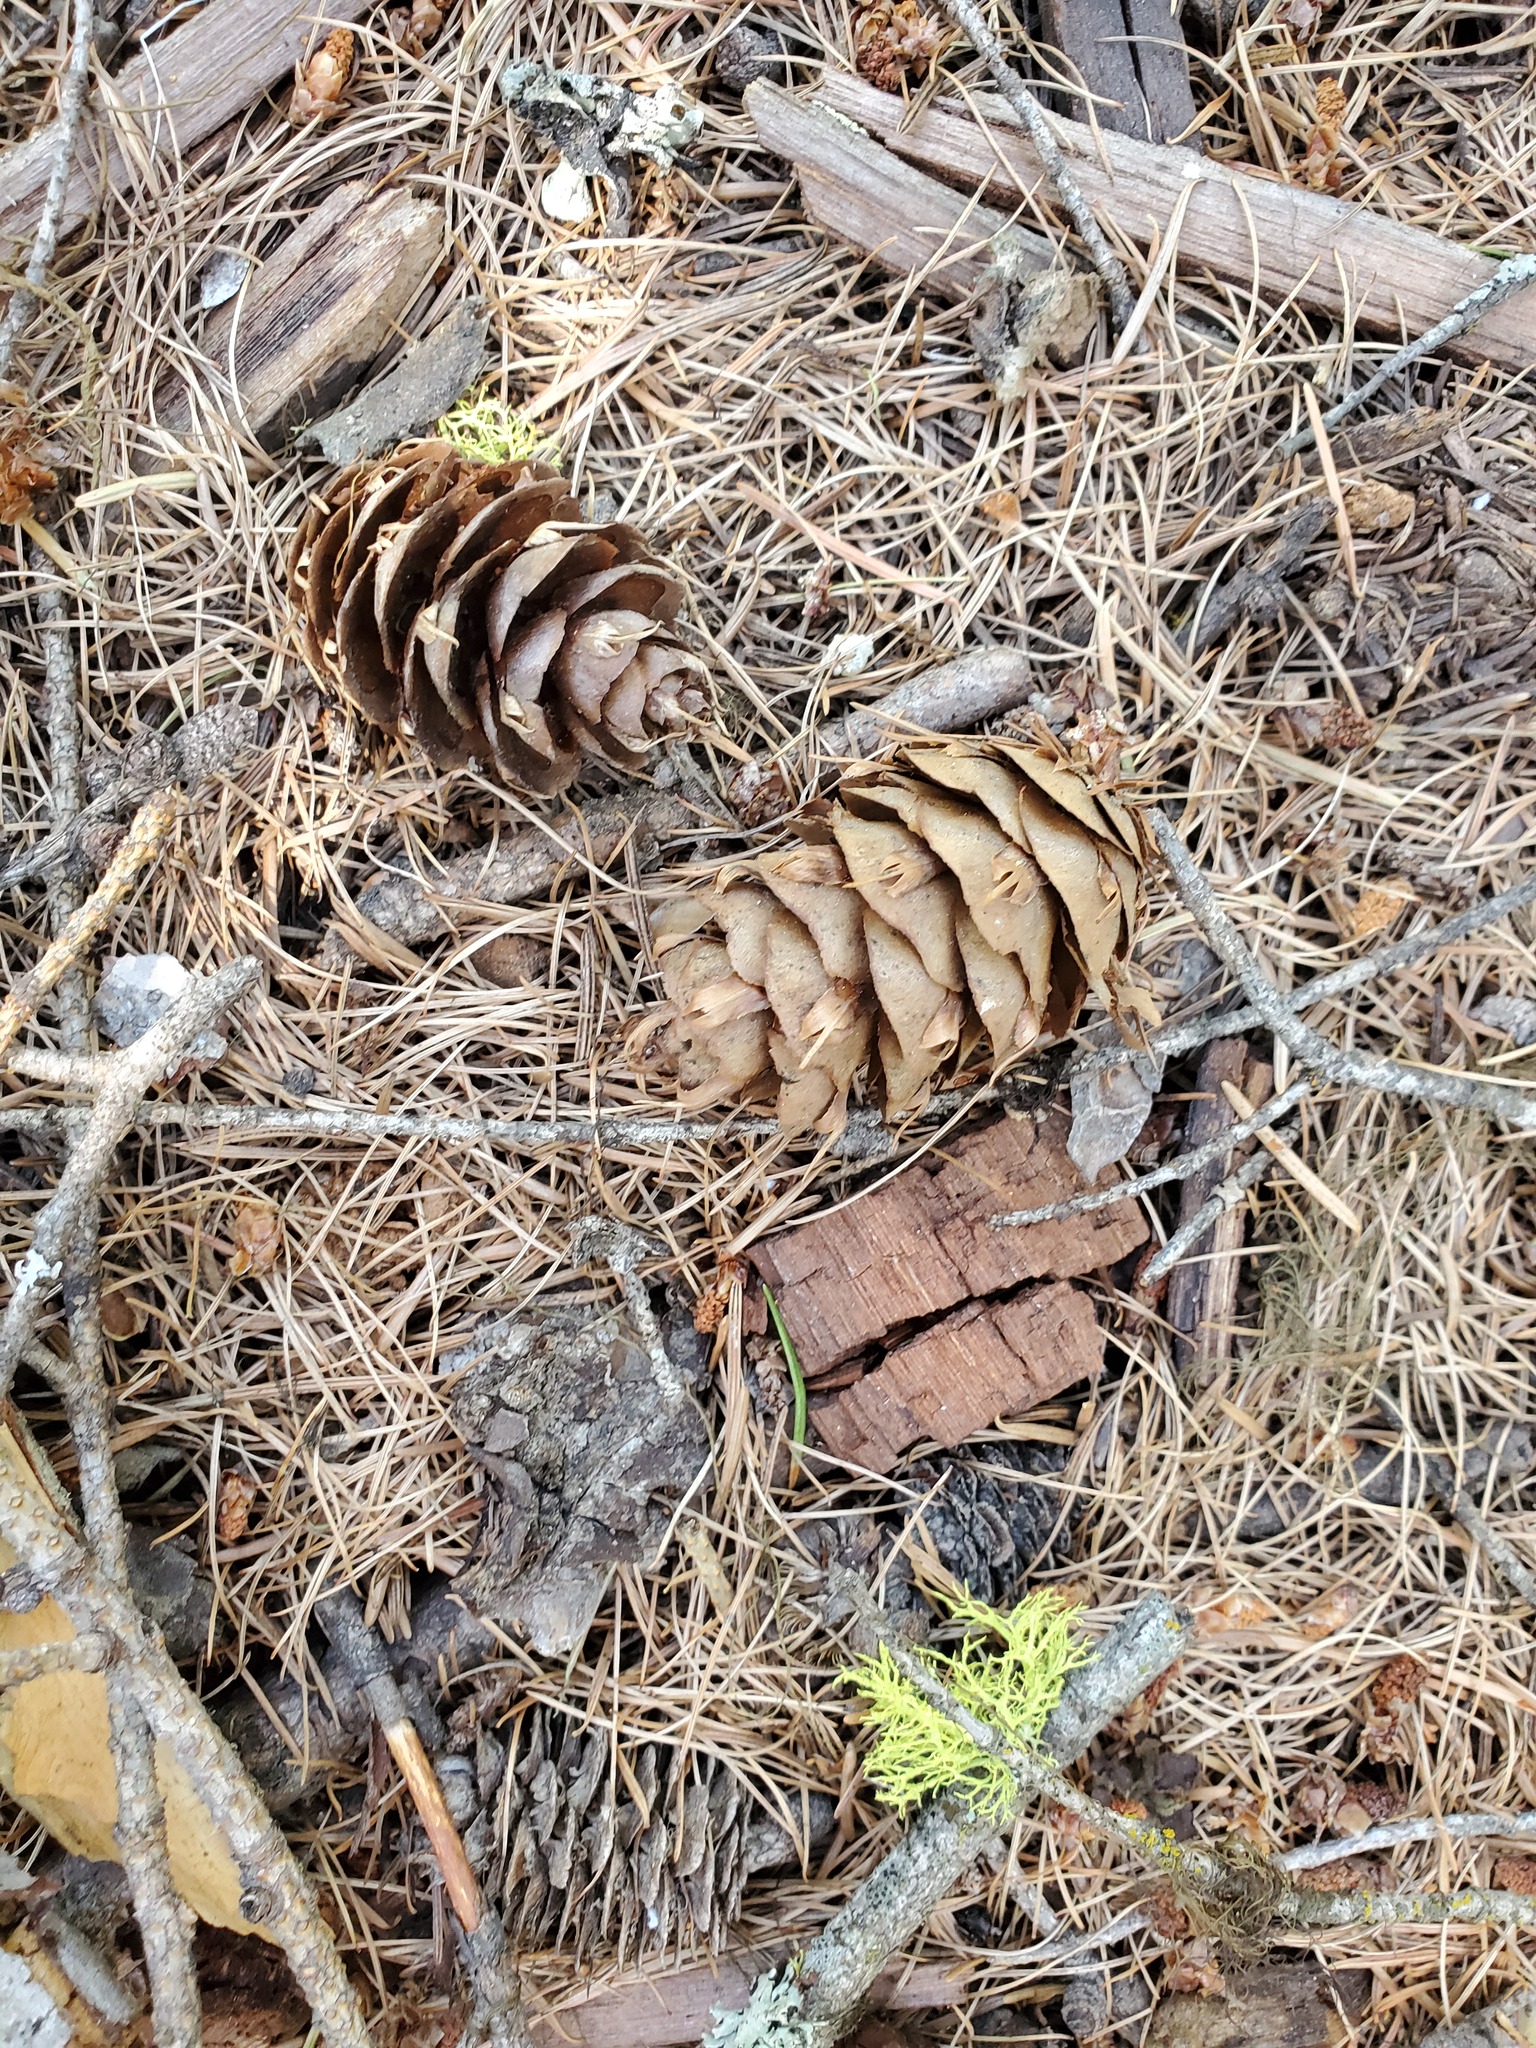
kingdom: Plantae
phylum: Tracheophyta
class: Pinopsida
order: Pinales
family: Pinaceae
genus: Pseudotsuga
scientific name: Pseudotsuga menziesii
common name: Douglas fir
